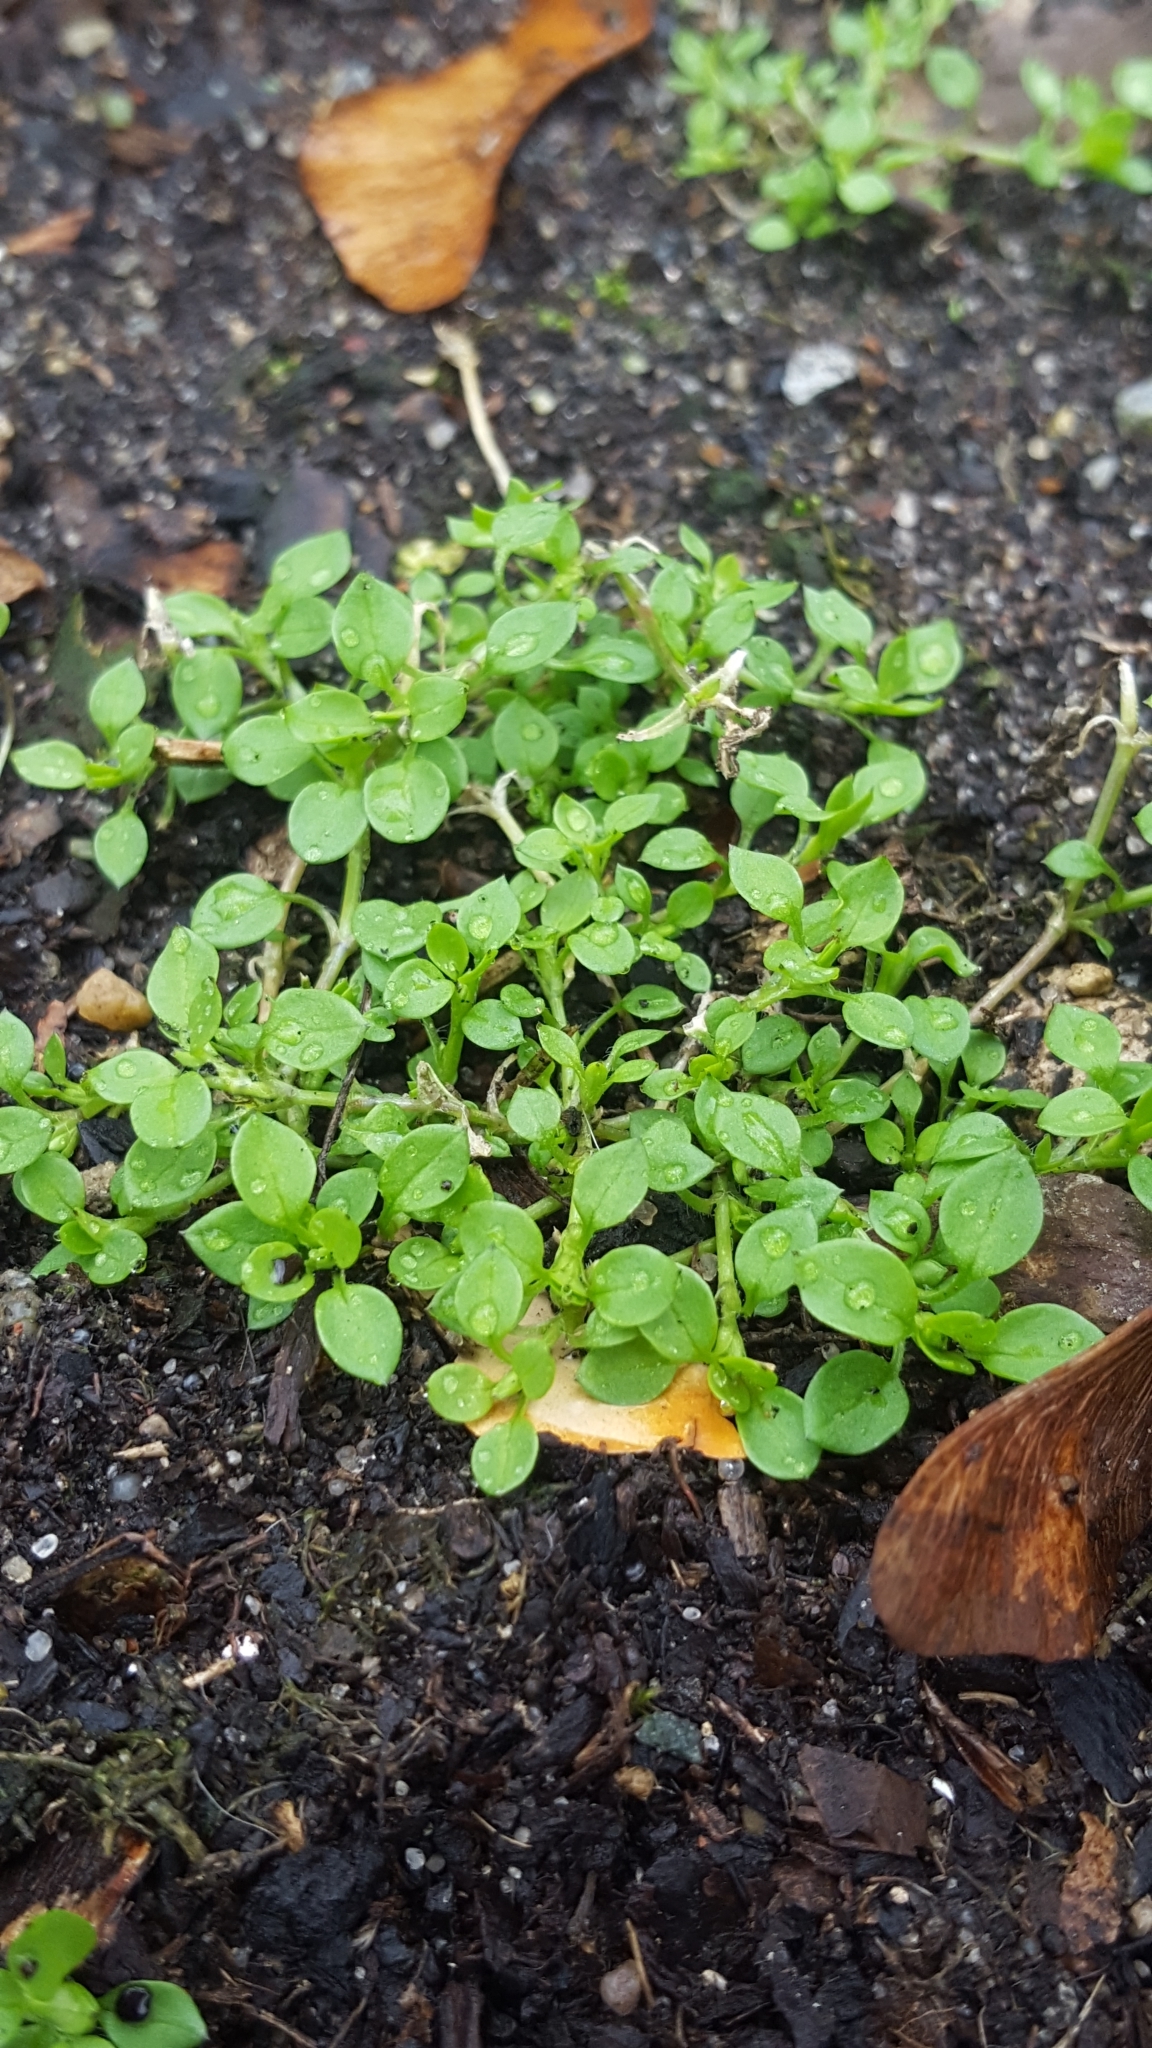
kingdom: Plantae
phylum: Tracheophyta
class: Magnoliopsida
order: Caryophyllales
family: Caryophyllaceae
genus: Stellaria
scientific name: Stellaria media
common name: Common chickweed
